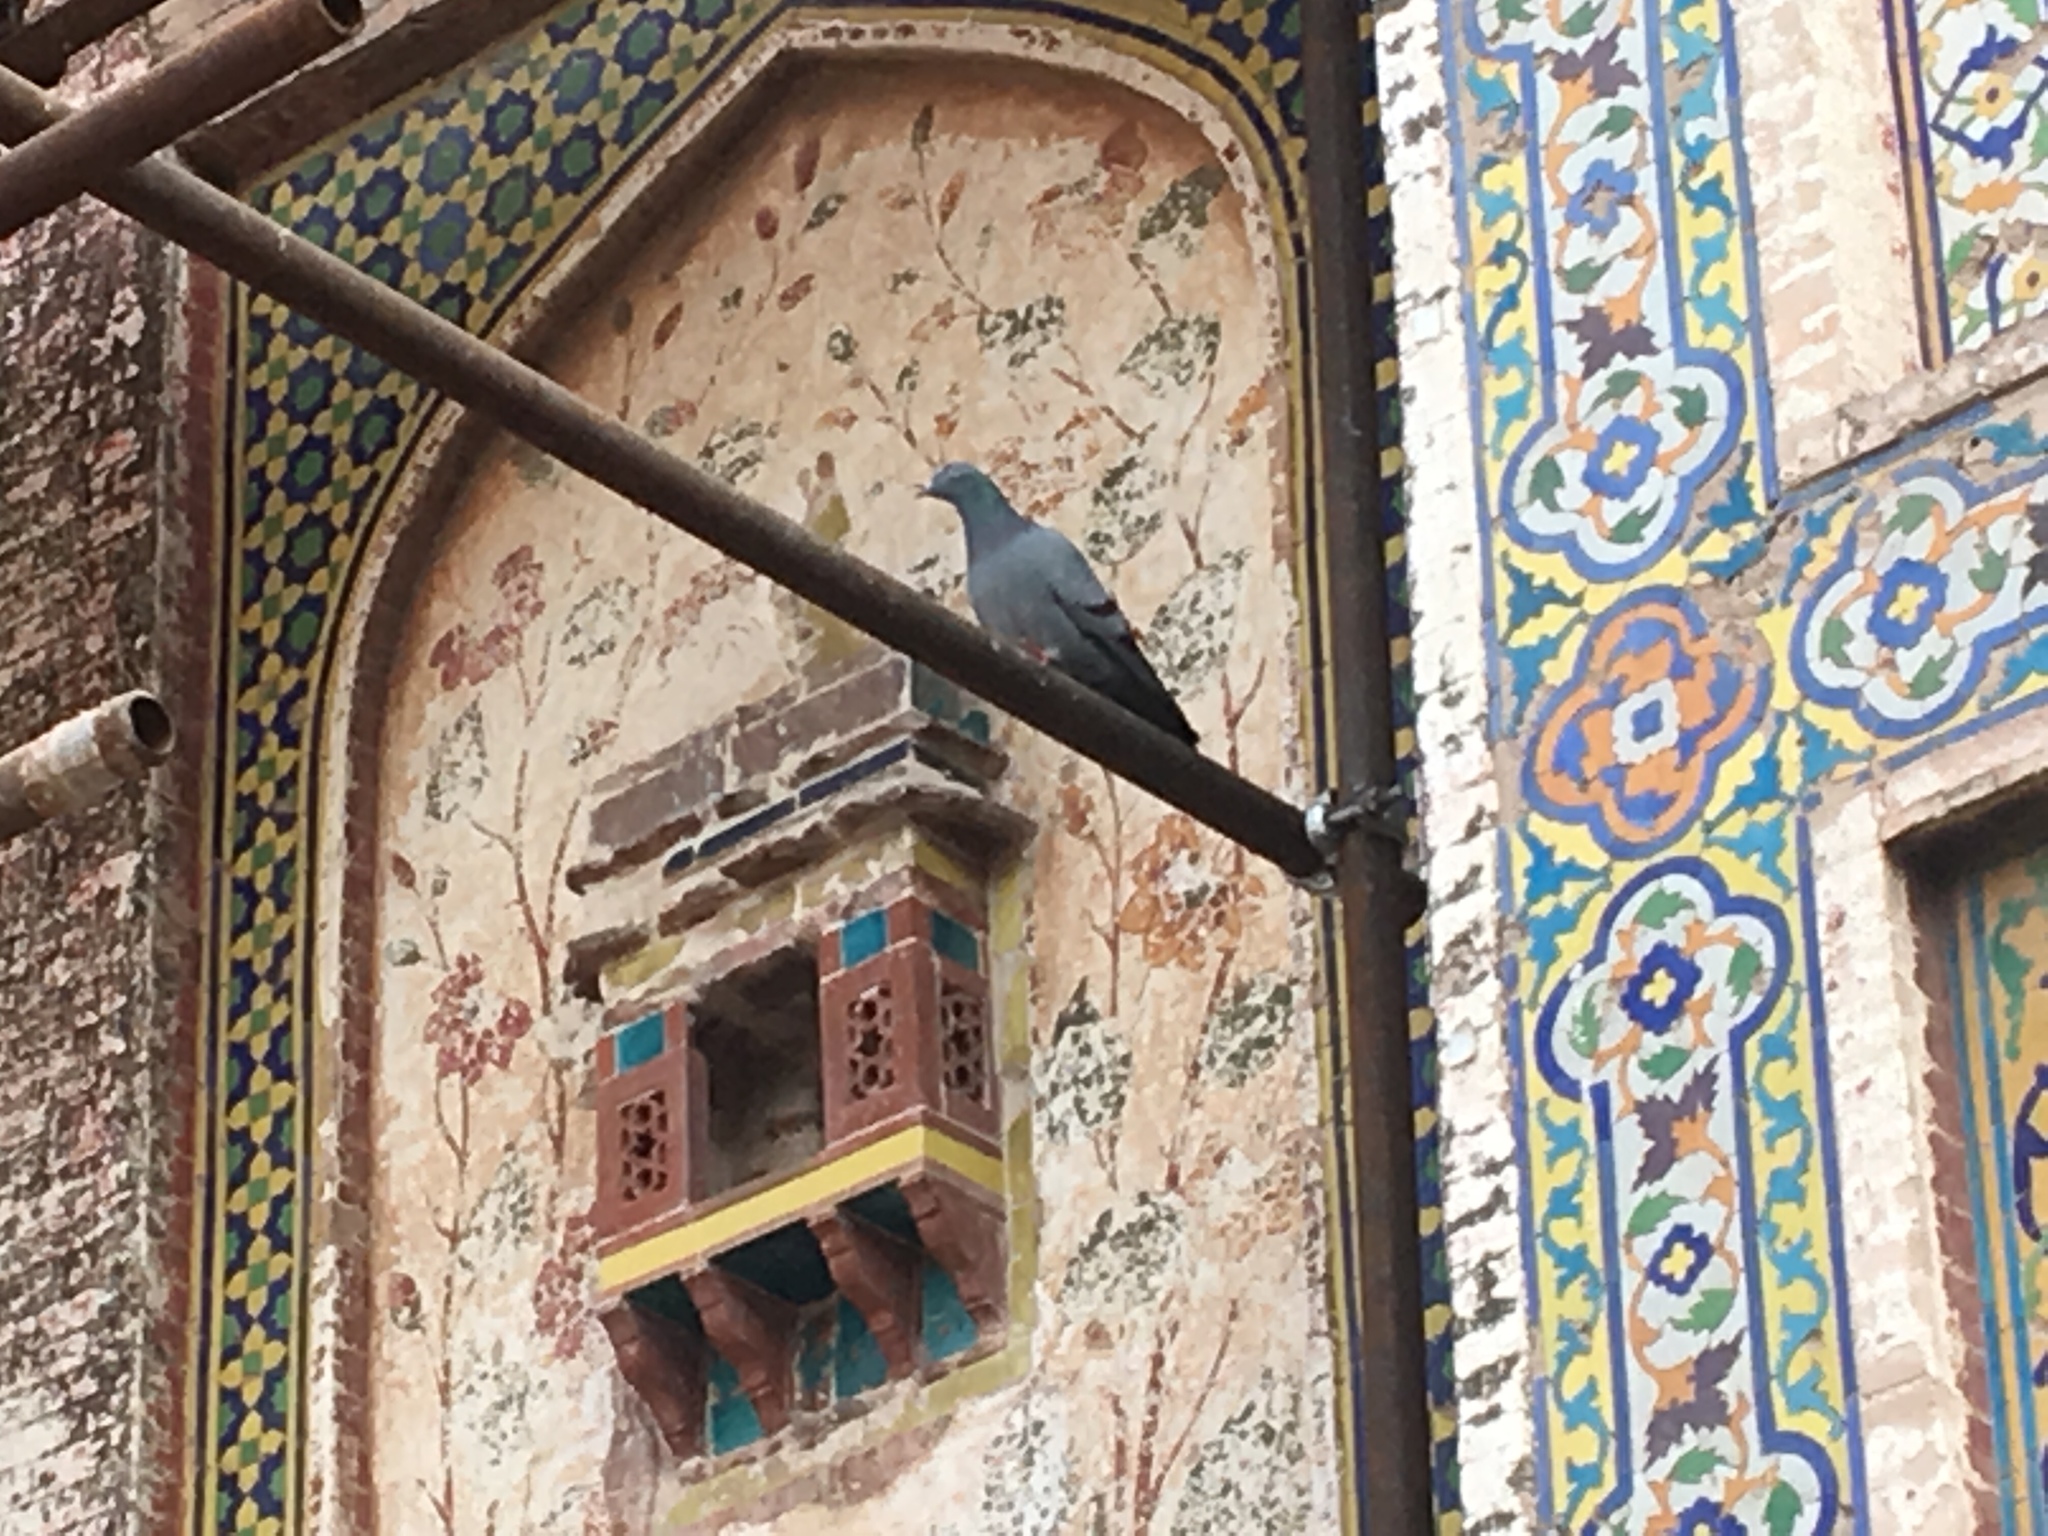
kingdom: Animalia
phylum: Chordata
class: Aves
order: Columbiformes
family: Columbidae
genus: Columba
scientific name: Columba livia
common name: Rock pigeon
